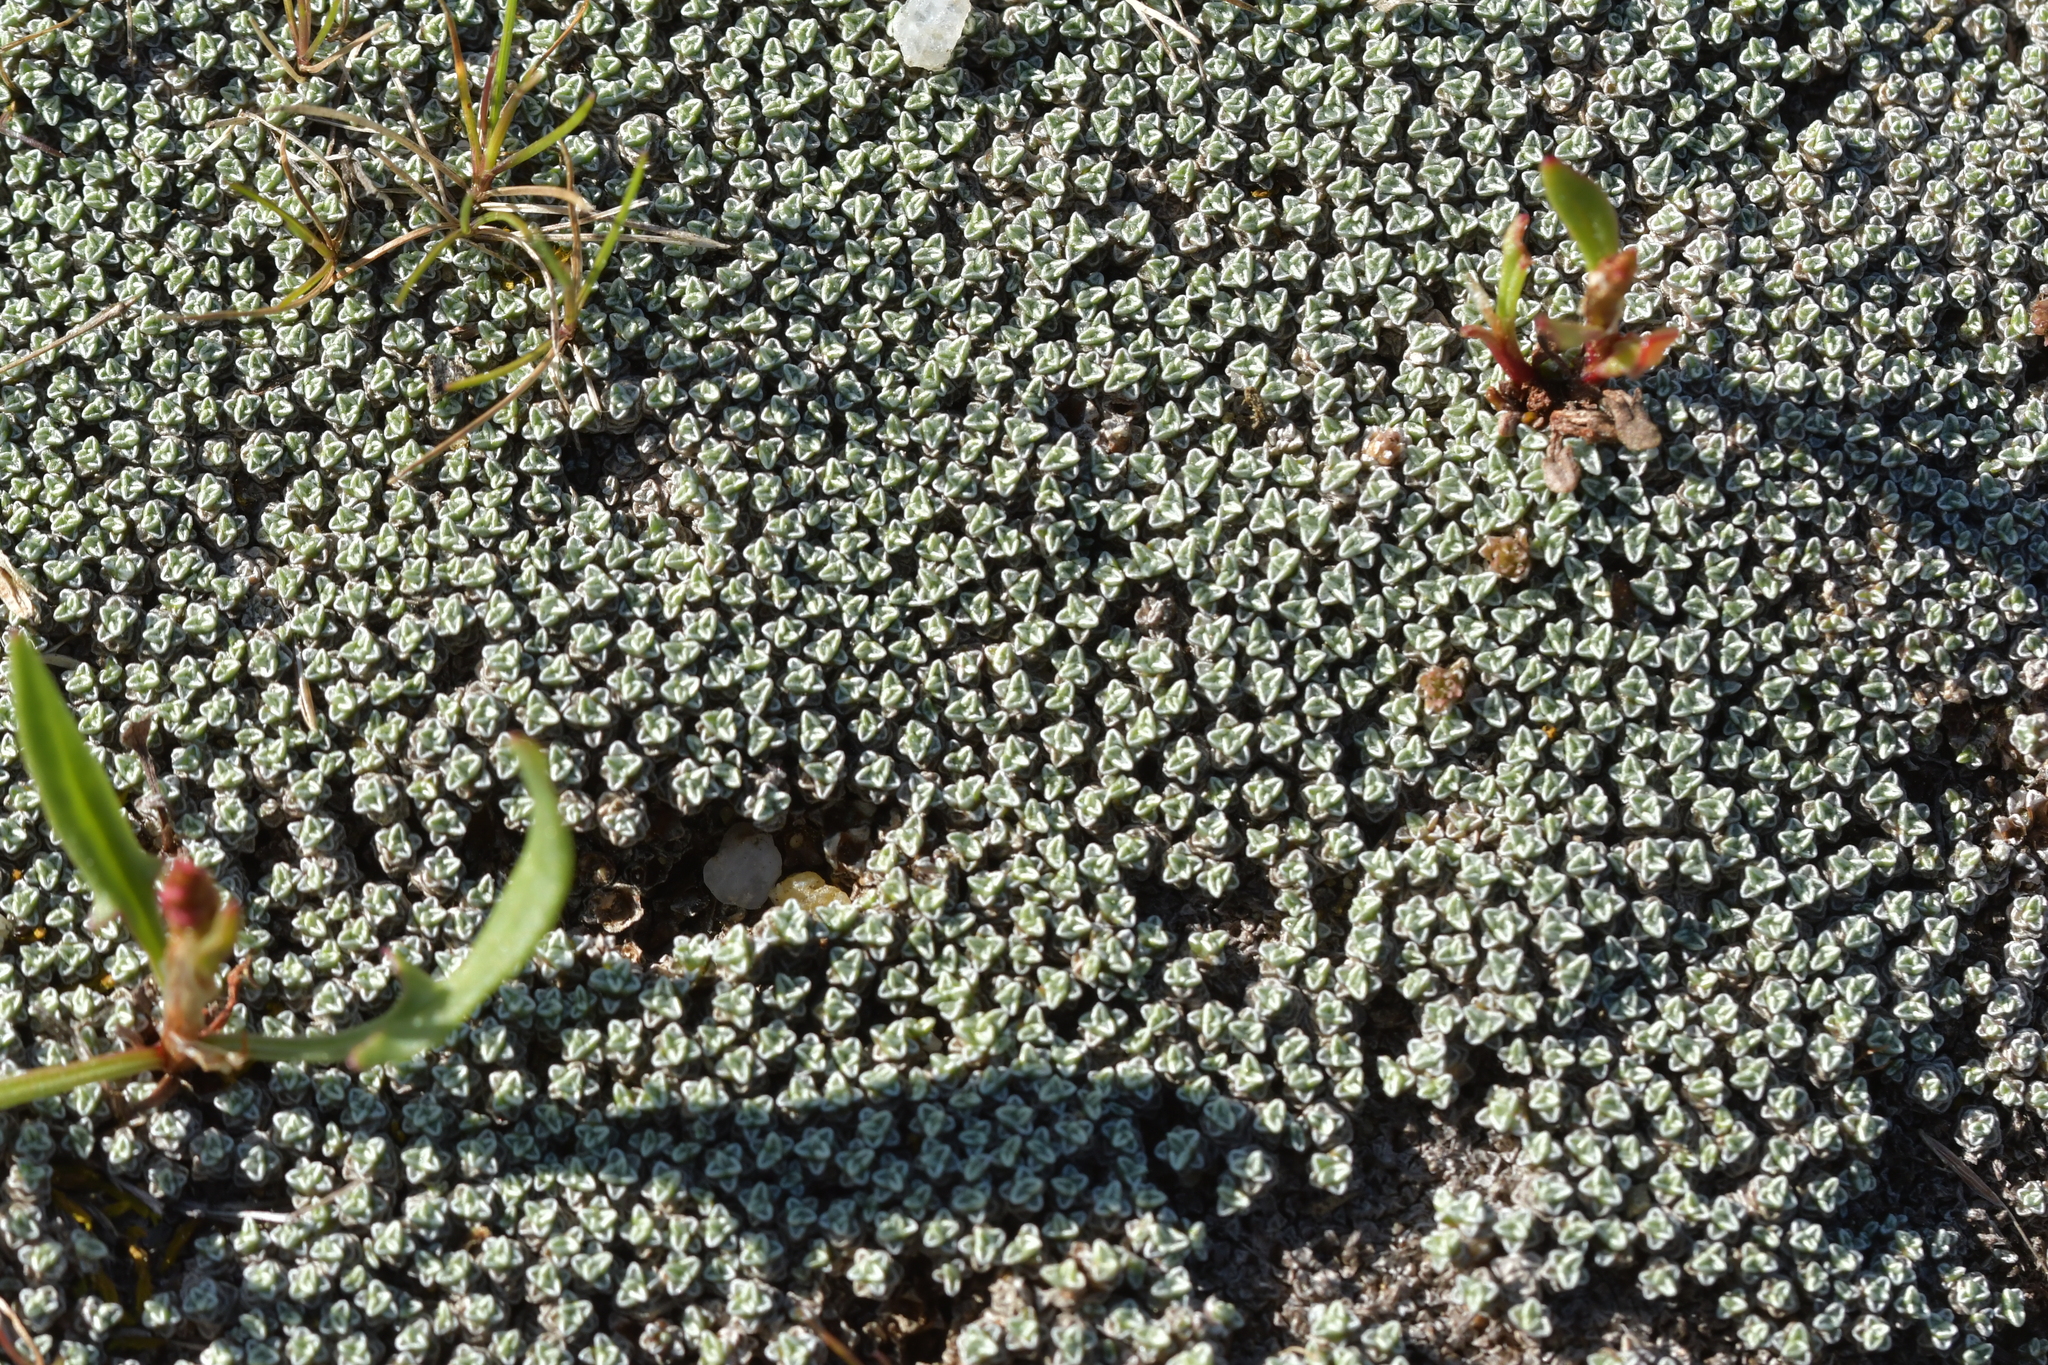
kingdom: Plantae
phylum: Tracheophyta
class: Magnoliopsida
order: Asterales
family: Asteraceae
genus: Raoulia
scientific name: Raoulia australis
